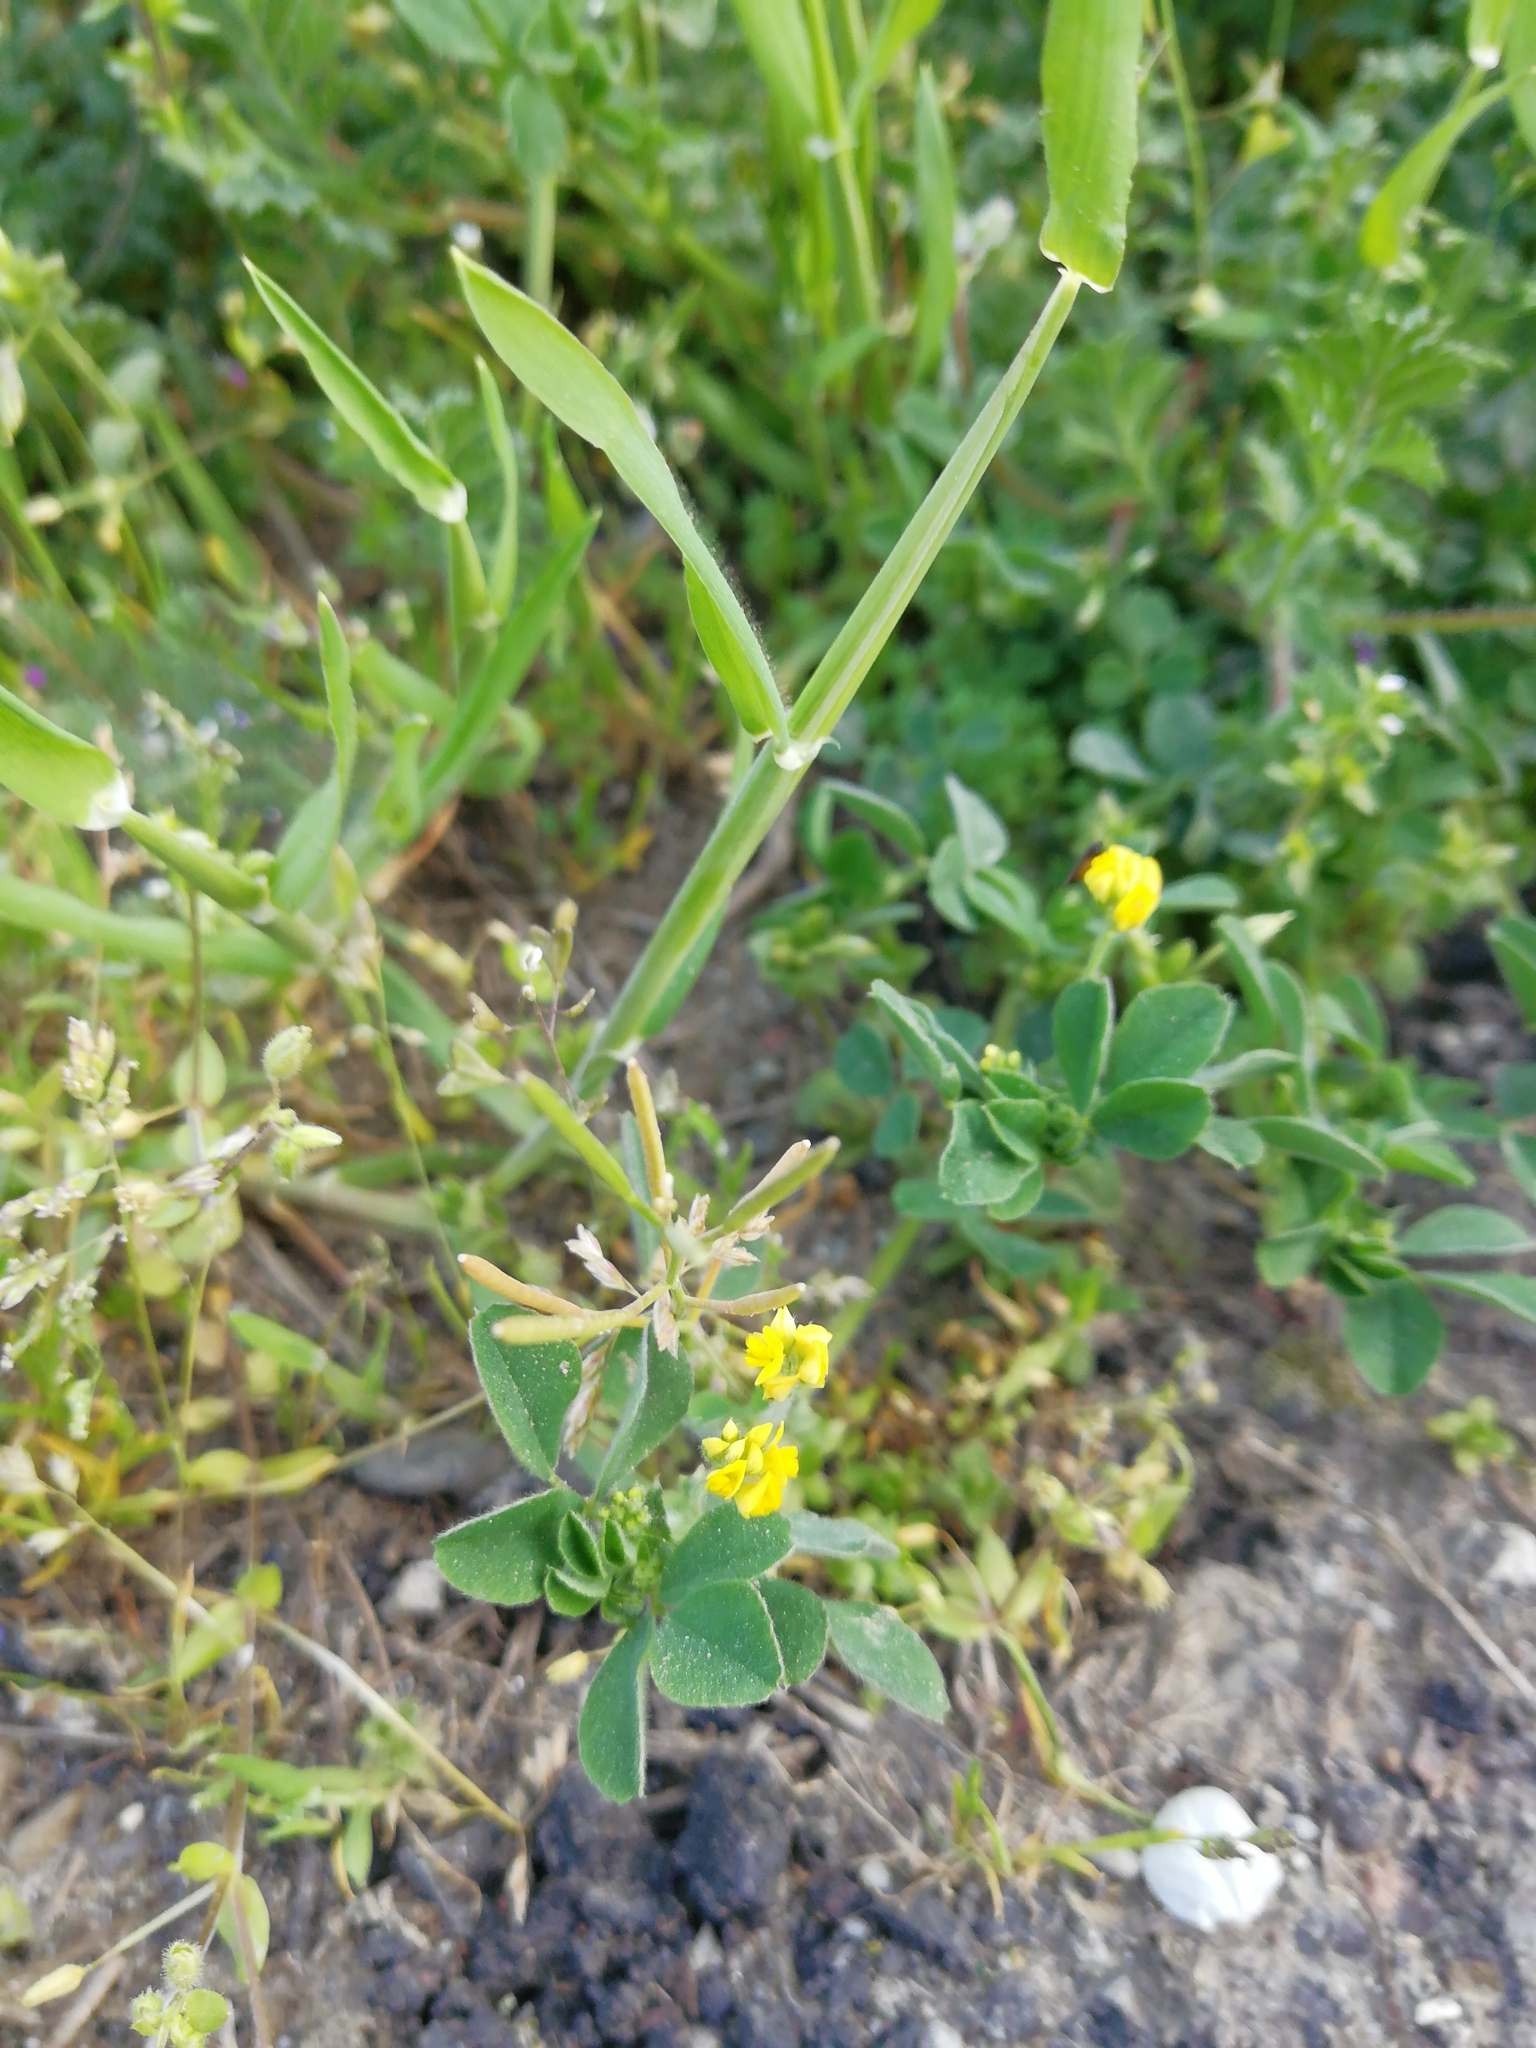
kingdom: Plantae
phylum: Tracheophyta
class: Magnoliopsida
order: Fabales
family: Fabaceae
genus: Medicago
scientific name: Medicago lupulina
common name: Black medick
